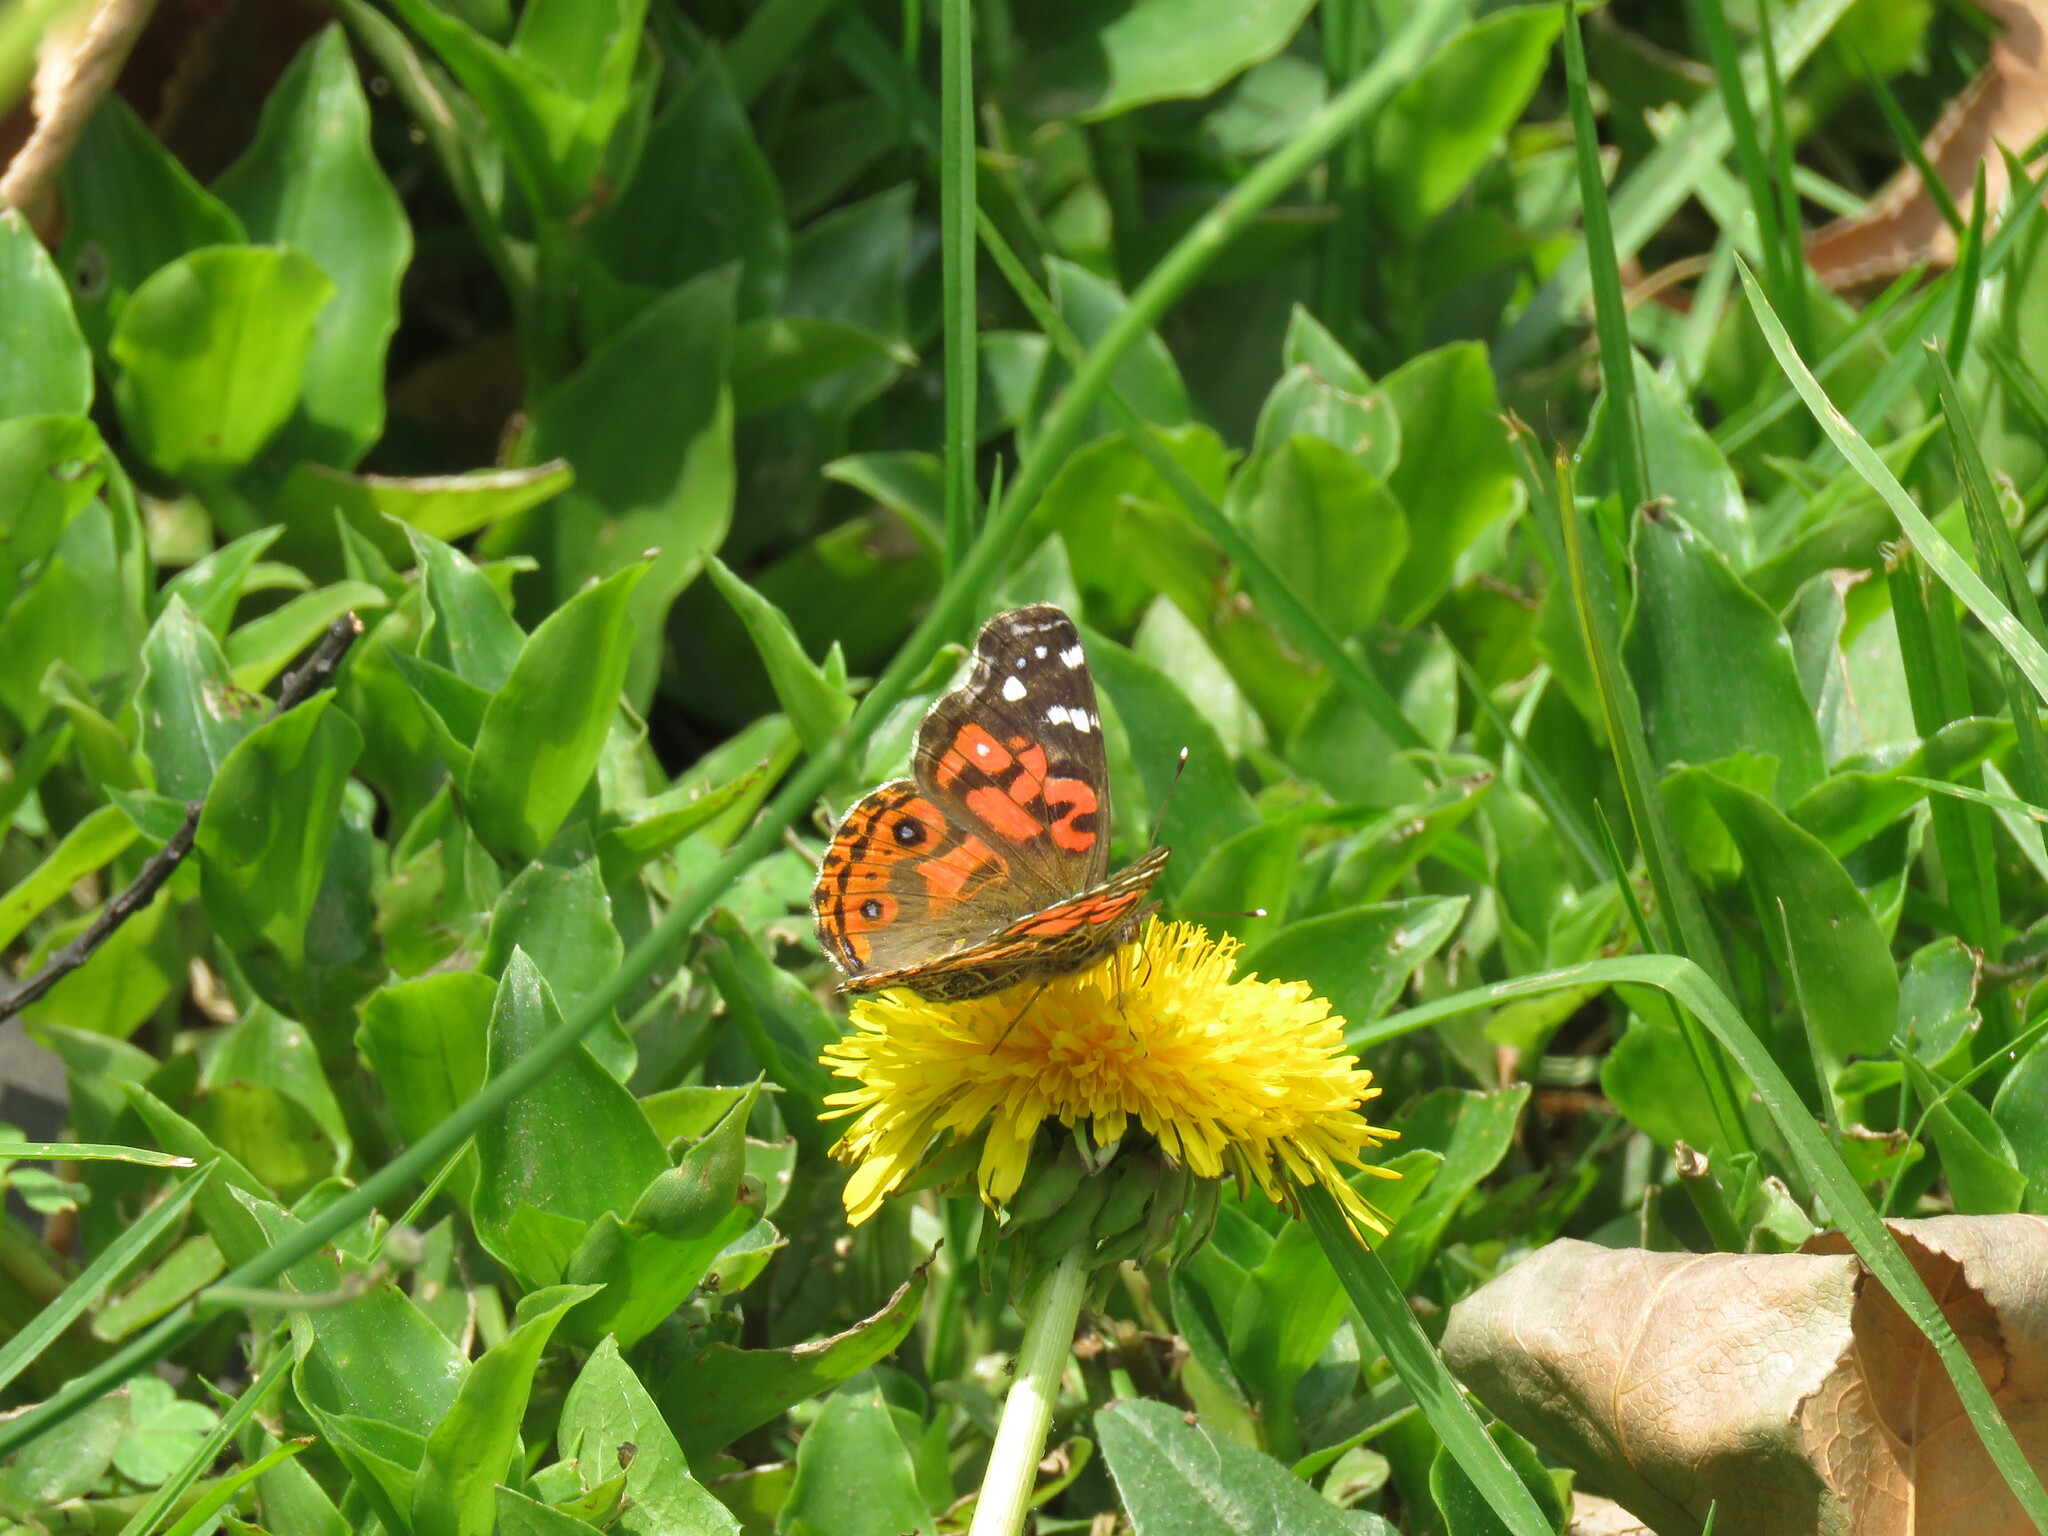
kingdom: Animalia
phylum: Arthropoda
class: Insecta
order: Lepidoptera
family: Nymphalidae
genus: Vanessa
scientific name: Vanessa braziliensis
